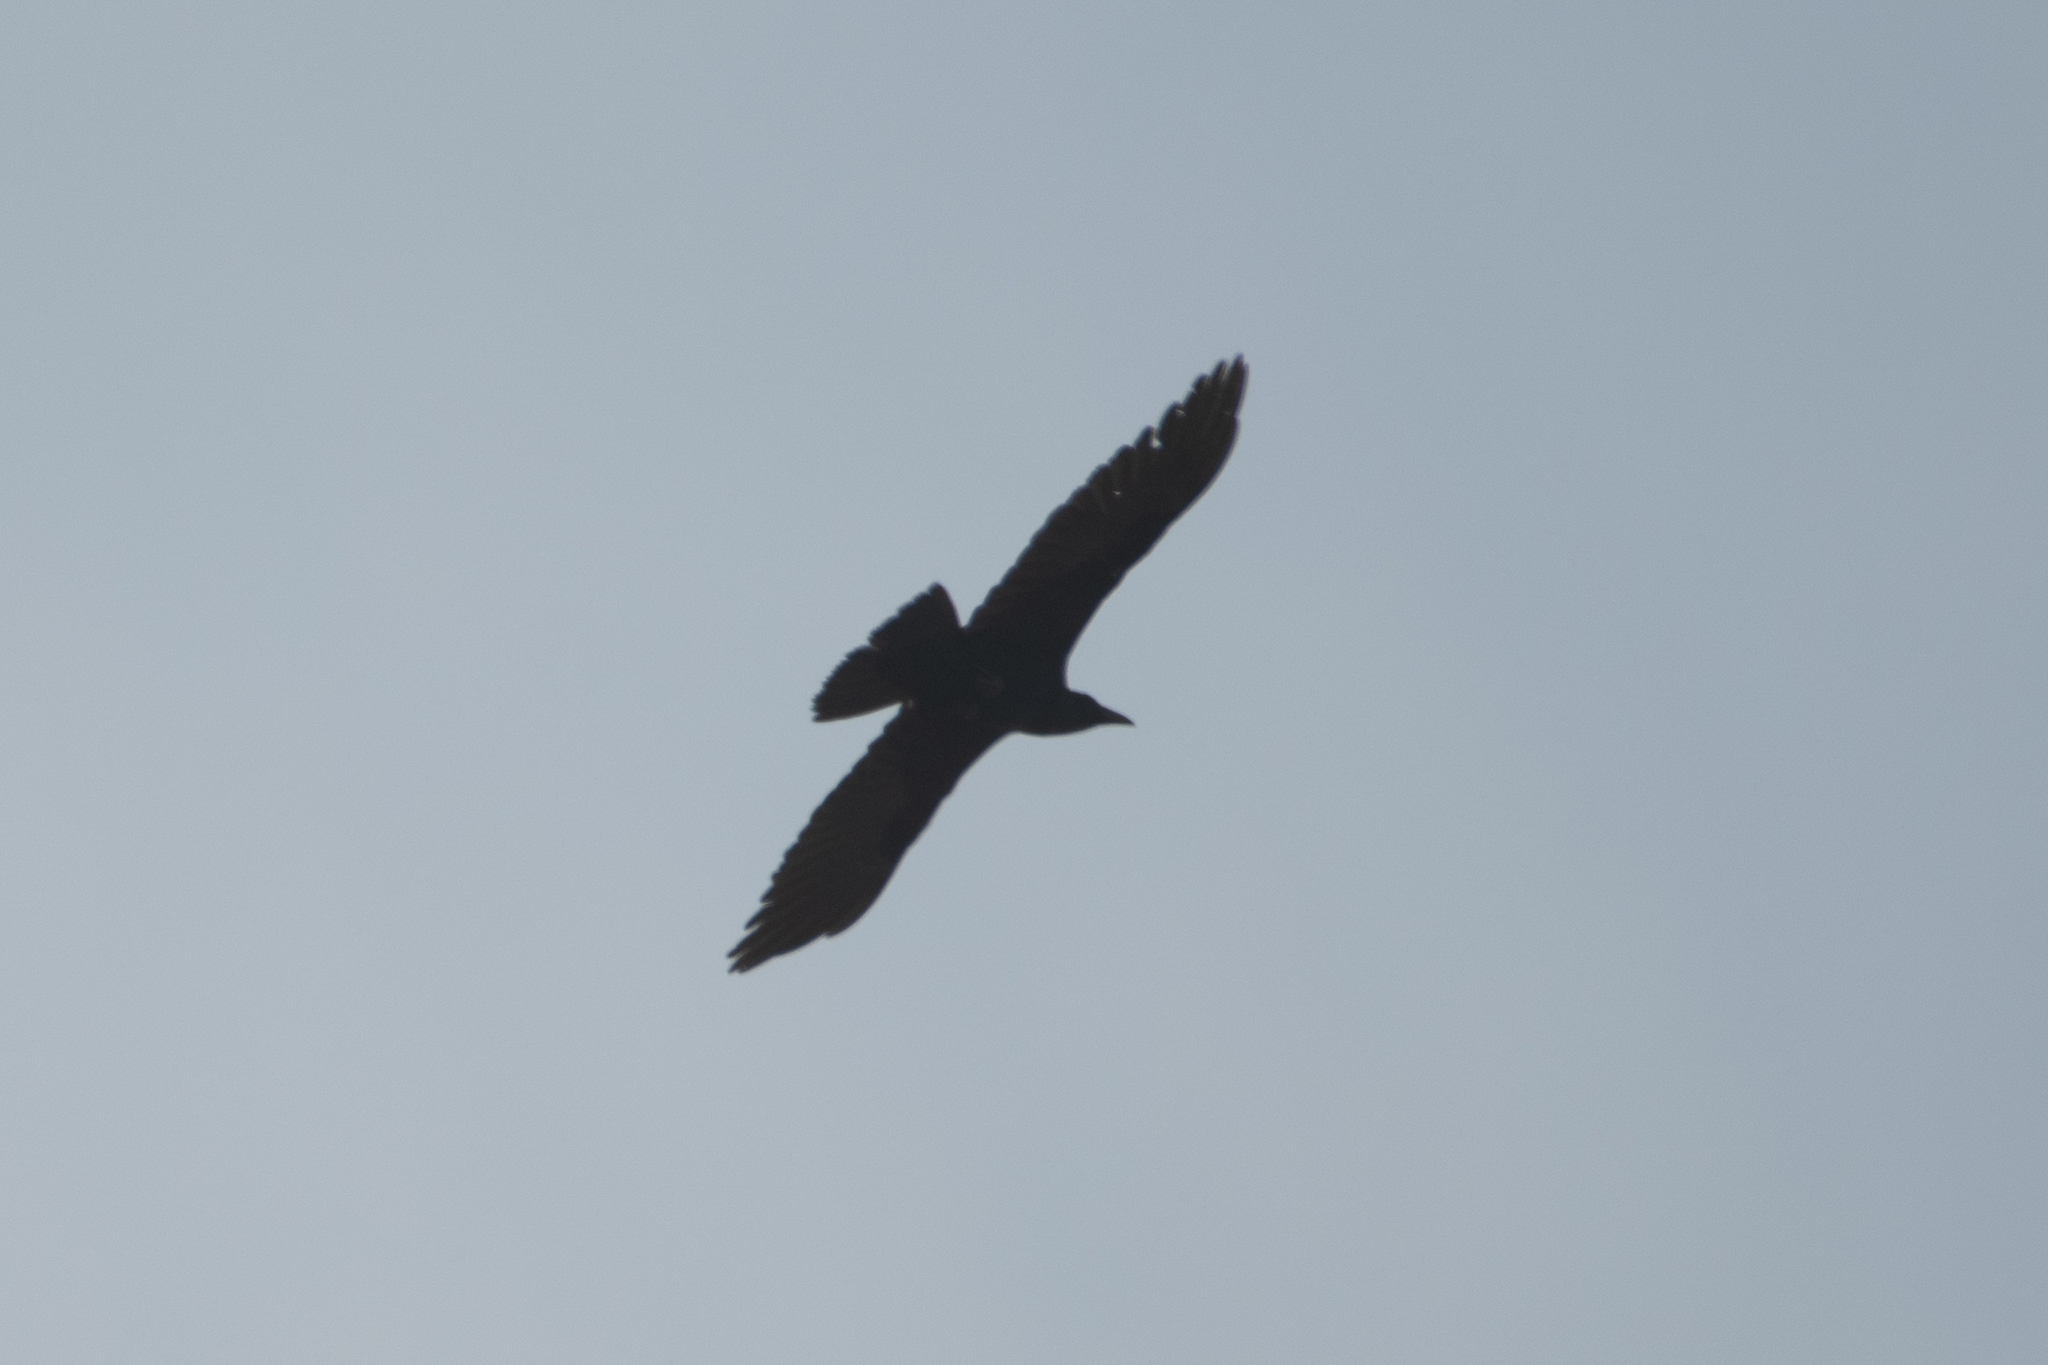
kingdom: Animalia
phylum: Chordata
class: Aves
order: Passeriformes
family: Corvidae
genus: Corvus
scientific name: Corvus corax
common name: Common raven
